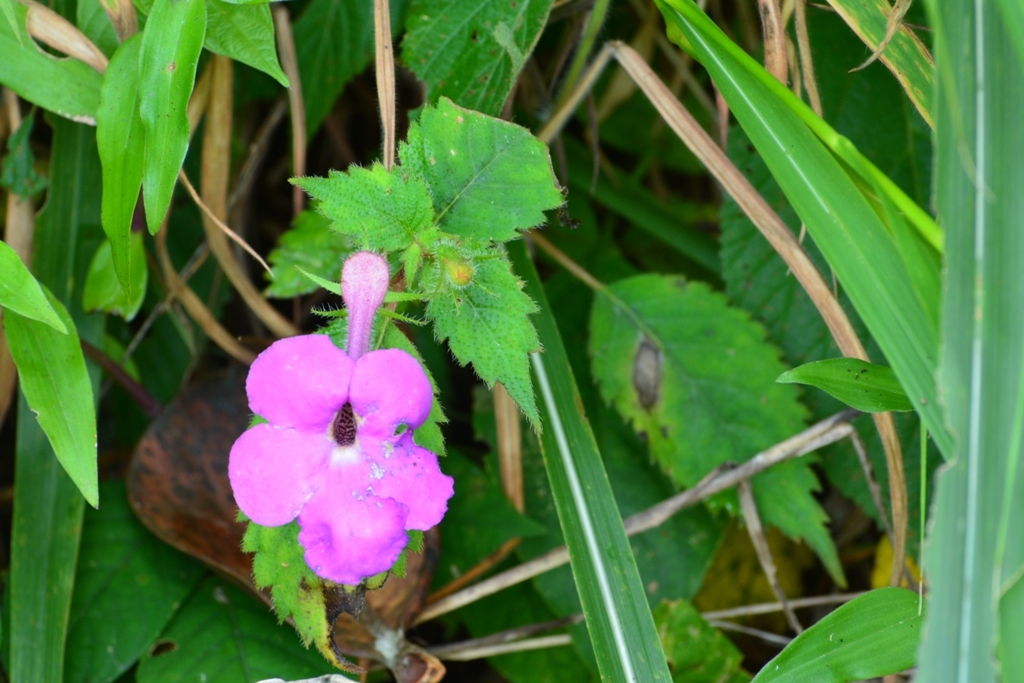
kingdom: Plantae
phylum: Tracheophyta
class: Magnoliopsida
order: Lamiales
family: Gesneriaceae
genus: Achimenes
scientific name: Achimenes grandiflora
